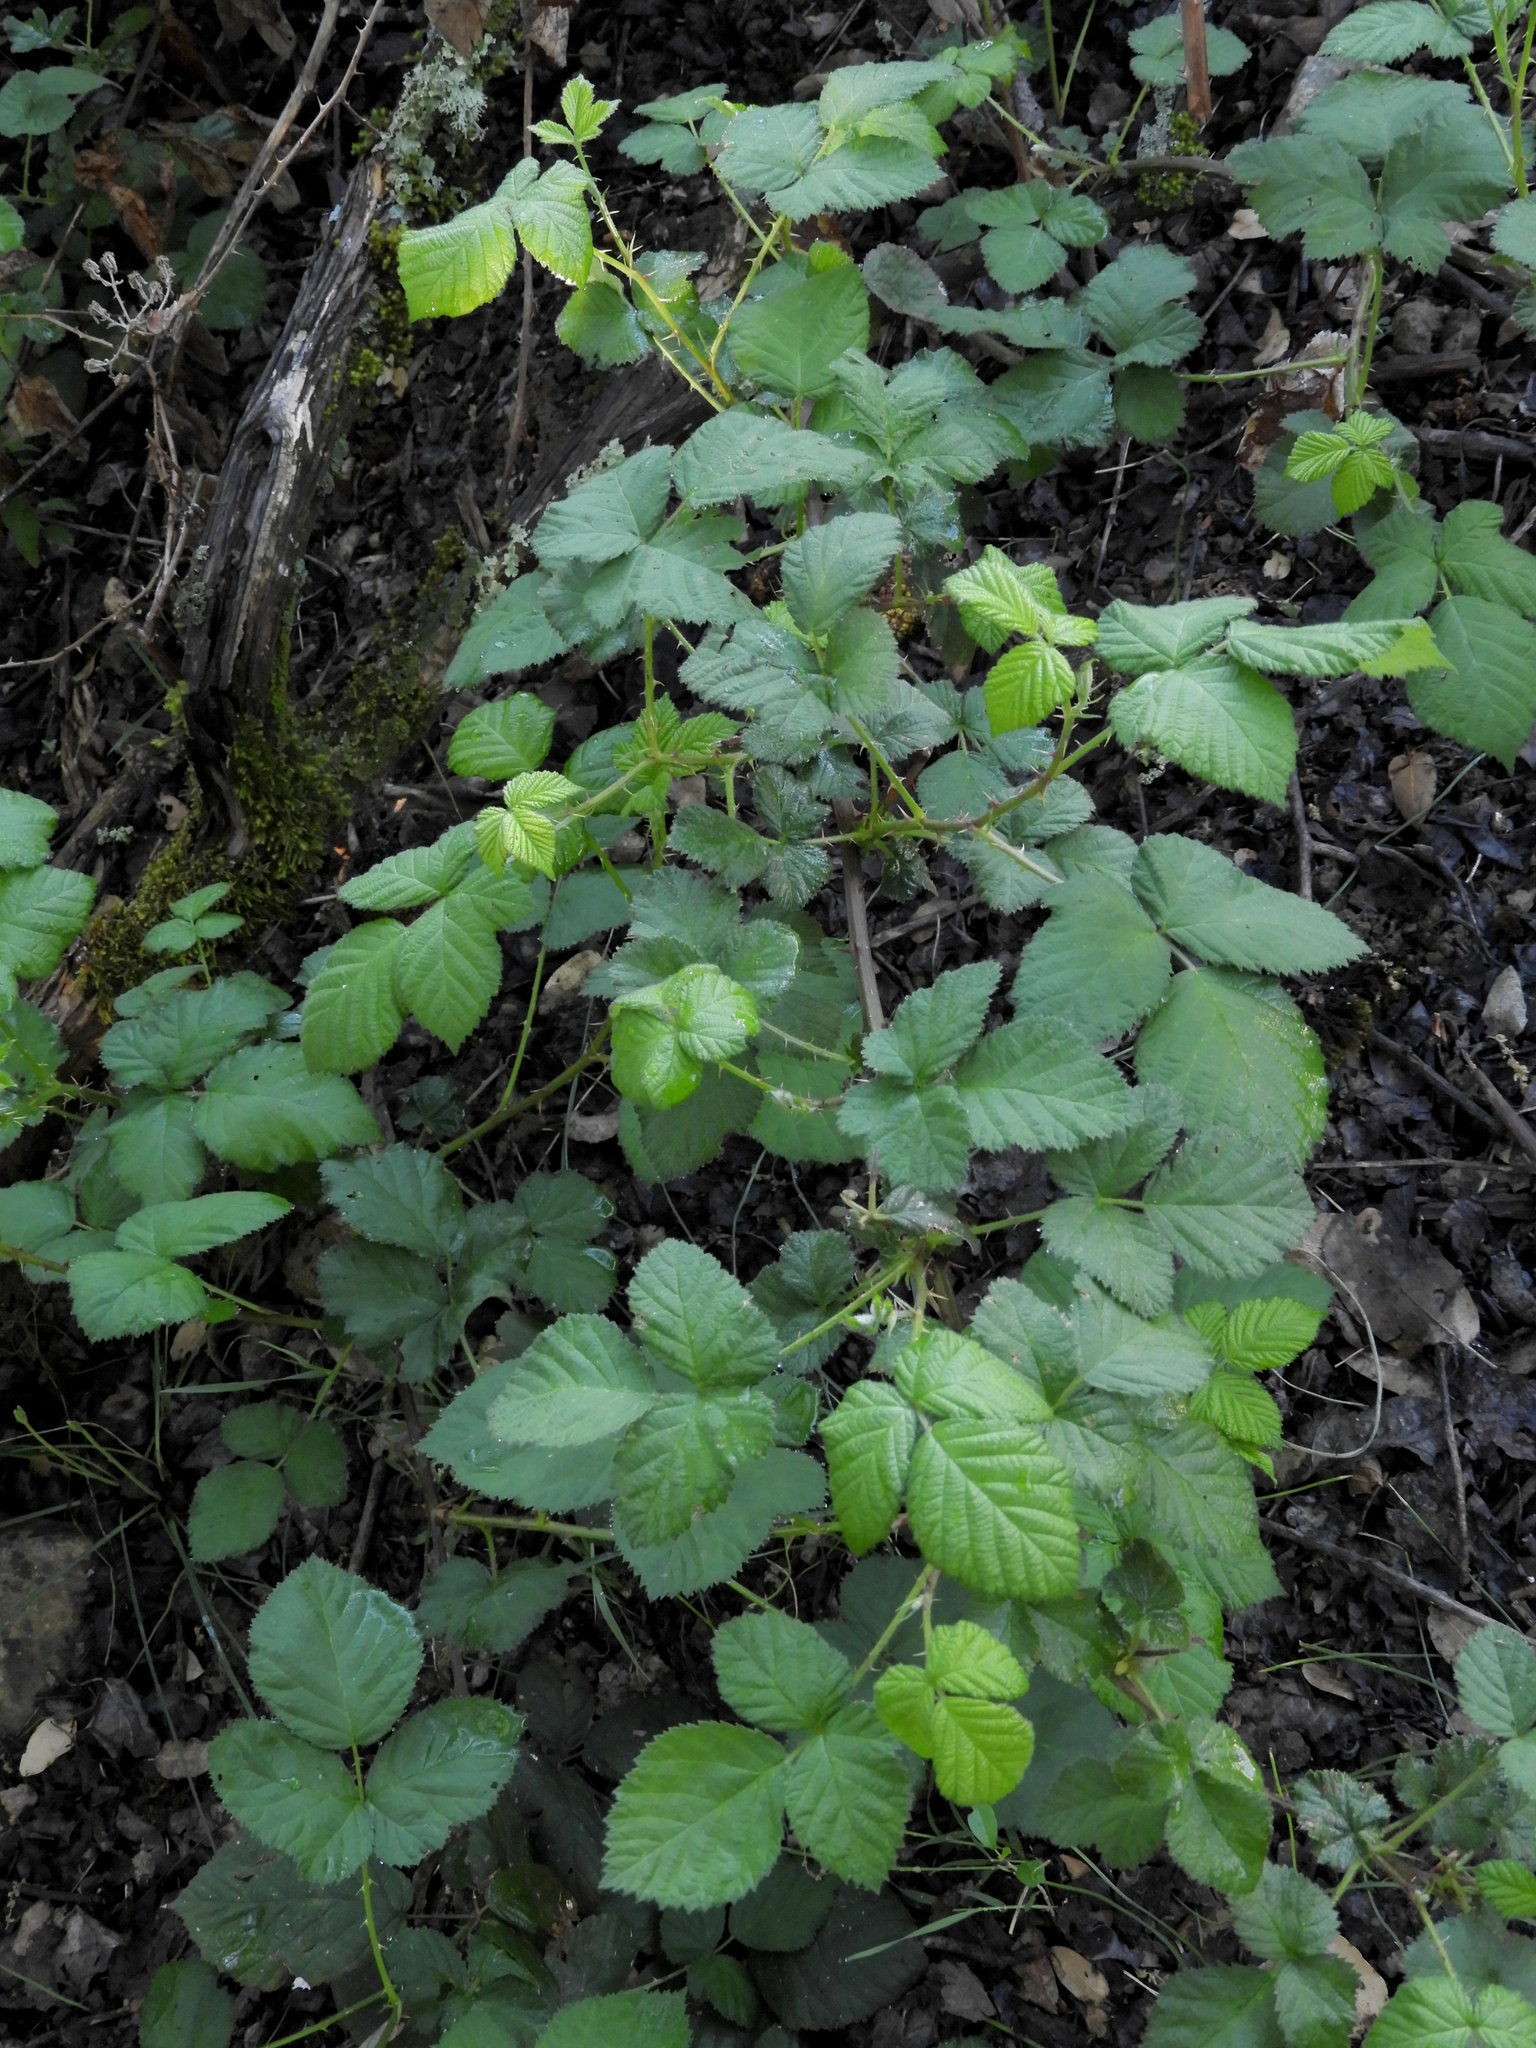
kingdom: Plantae
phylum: Tracheophyta
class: Magnoliopsida
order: Rosales
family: Rosaceae
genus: Rubus
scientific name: Rubus armeniacus
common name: Himalayan blackberry
